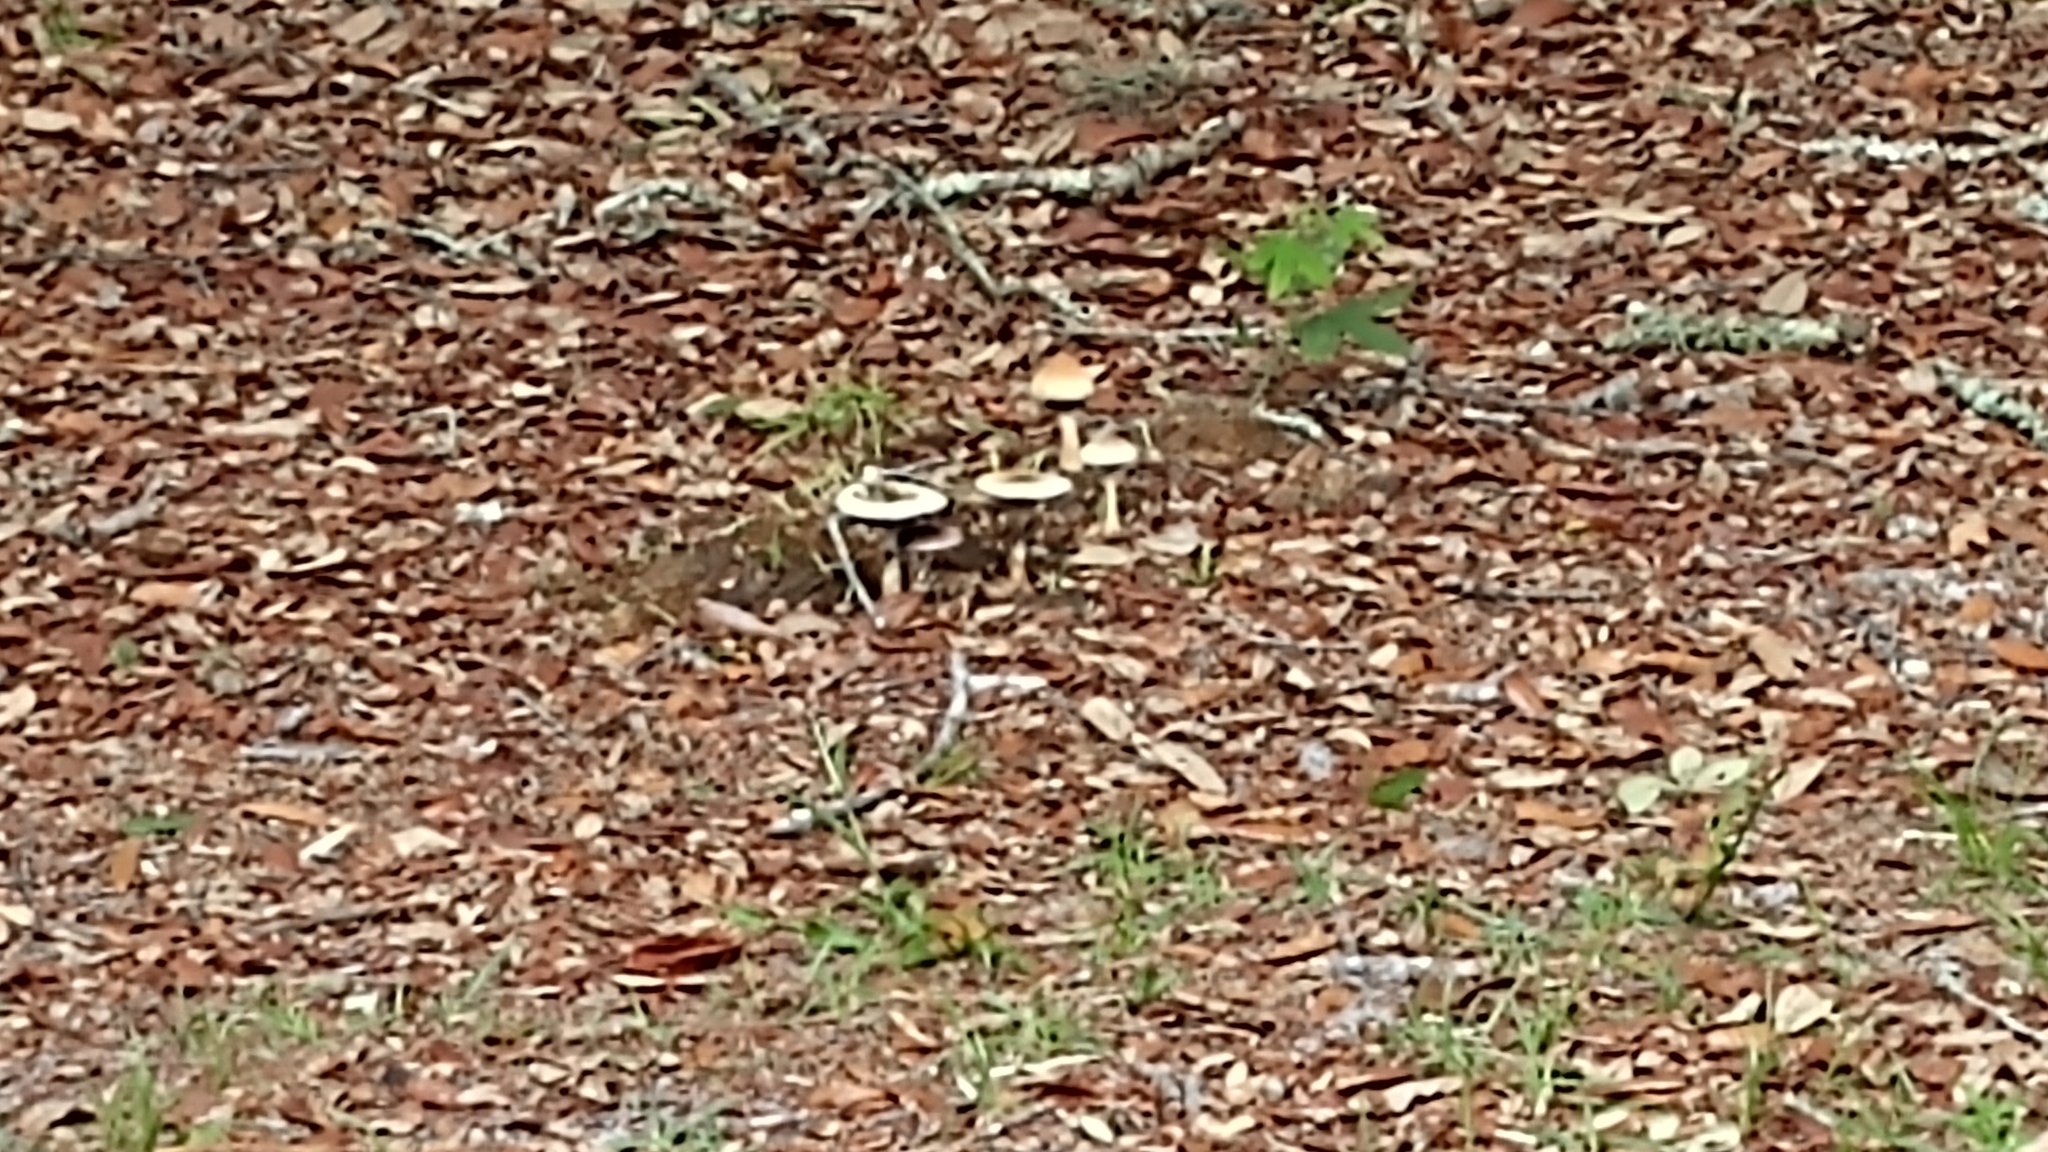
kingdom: Fungi
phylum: Basidiomycota
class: Agaricomycetes
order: Agaricales
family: Hymenogastraceae
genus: Psilocybe
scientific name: Psilocybe cubensis
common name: Golden brownie
